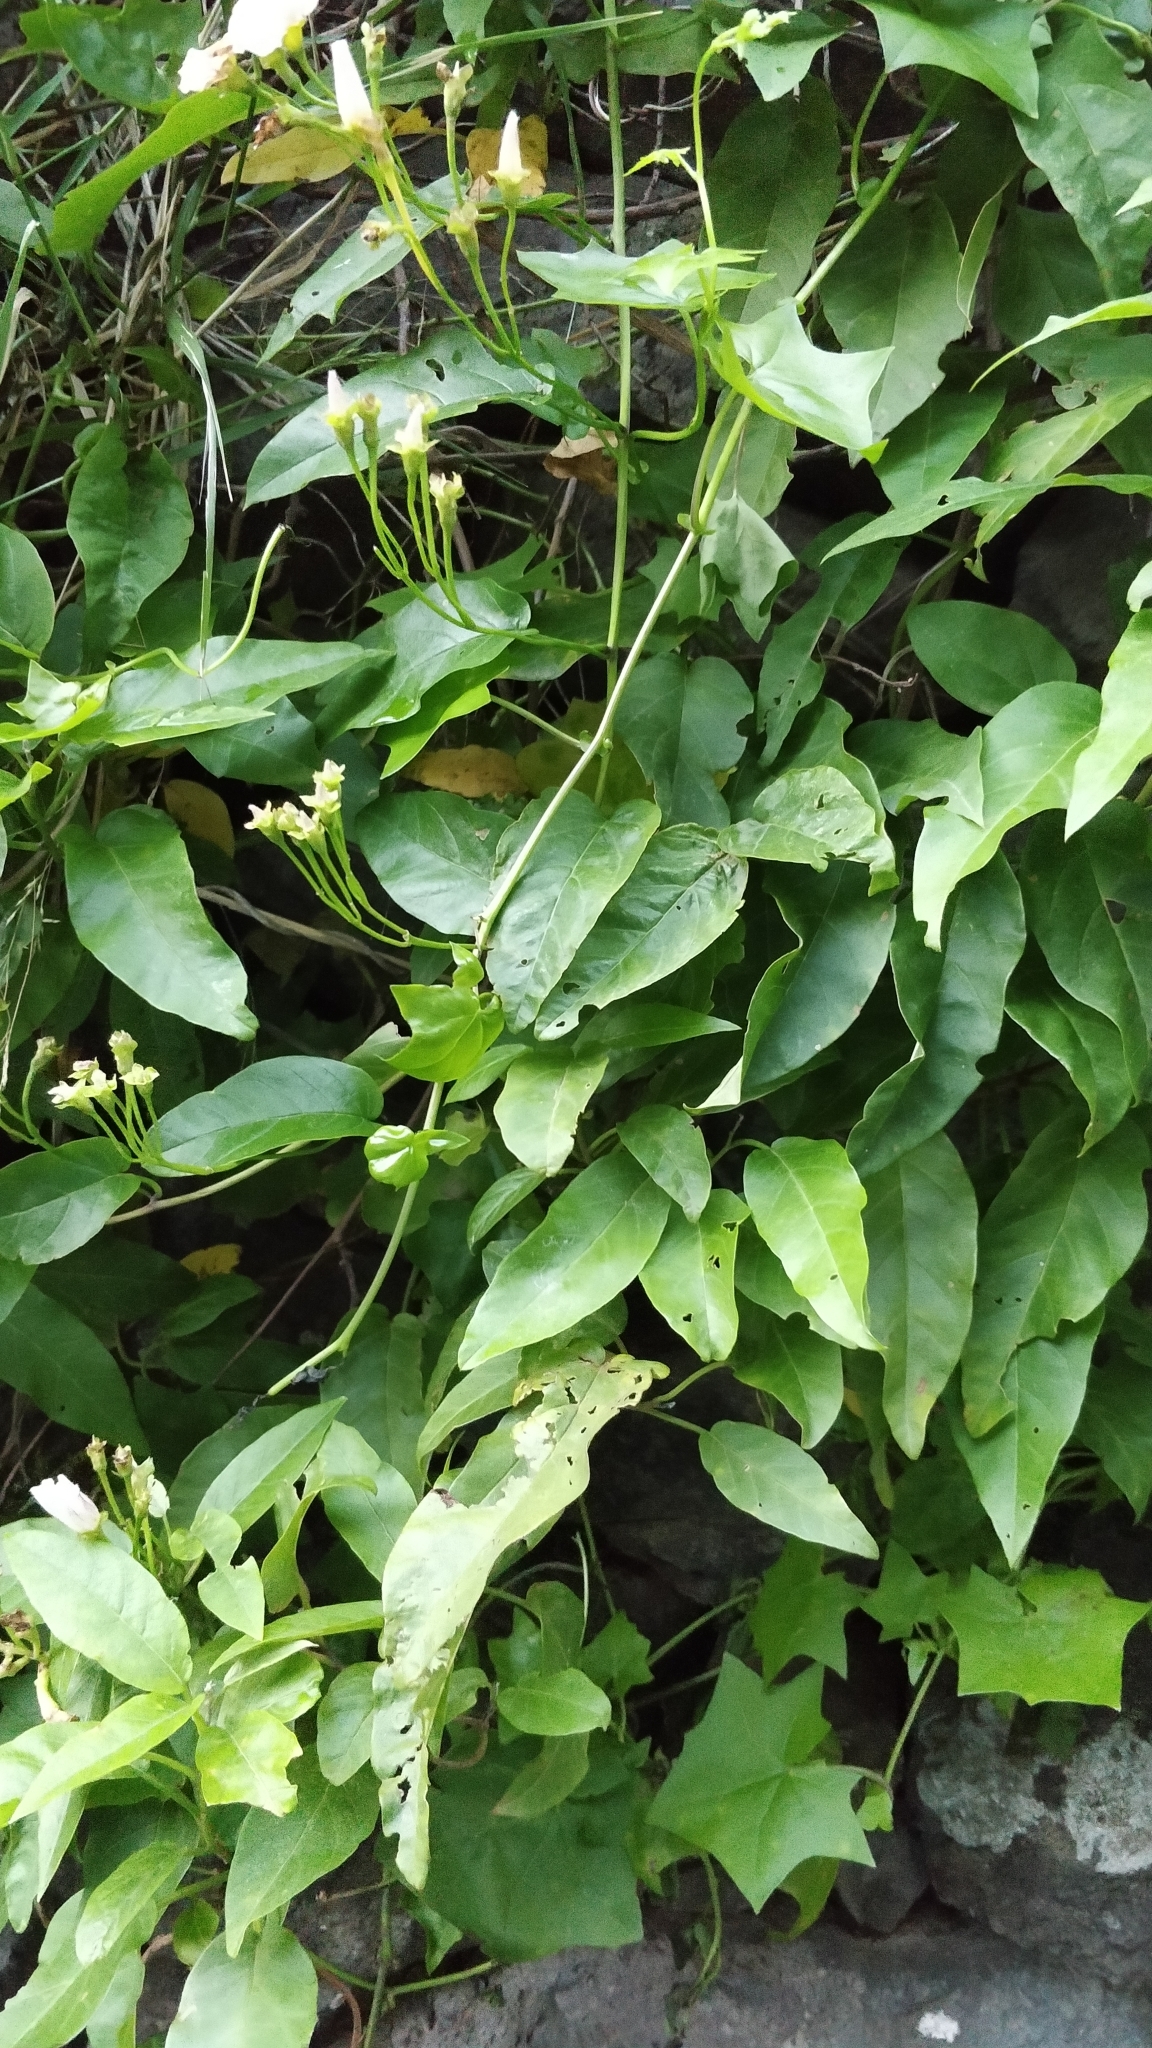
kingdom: Plantae
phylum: Tracheophyta
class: Magnoliopsida
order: Solanales
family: Convolvulaceae
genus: Convolvulus
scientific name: Convolvulus massonii
